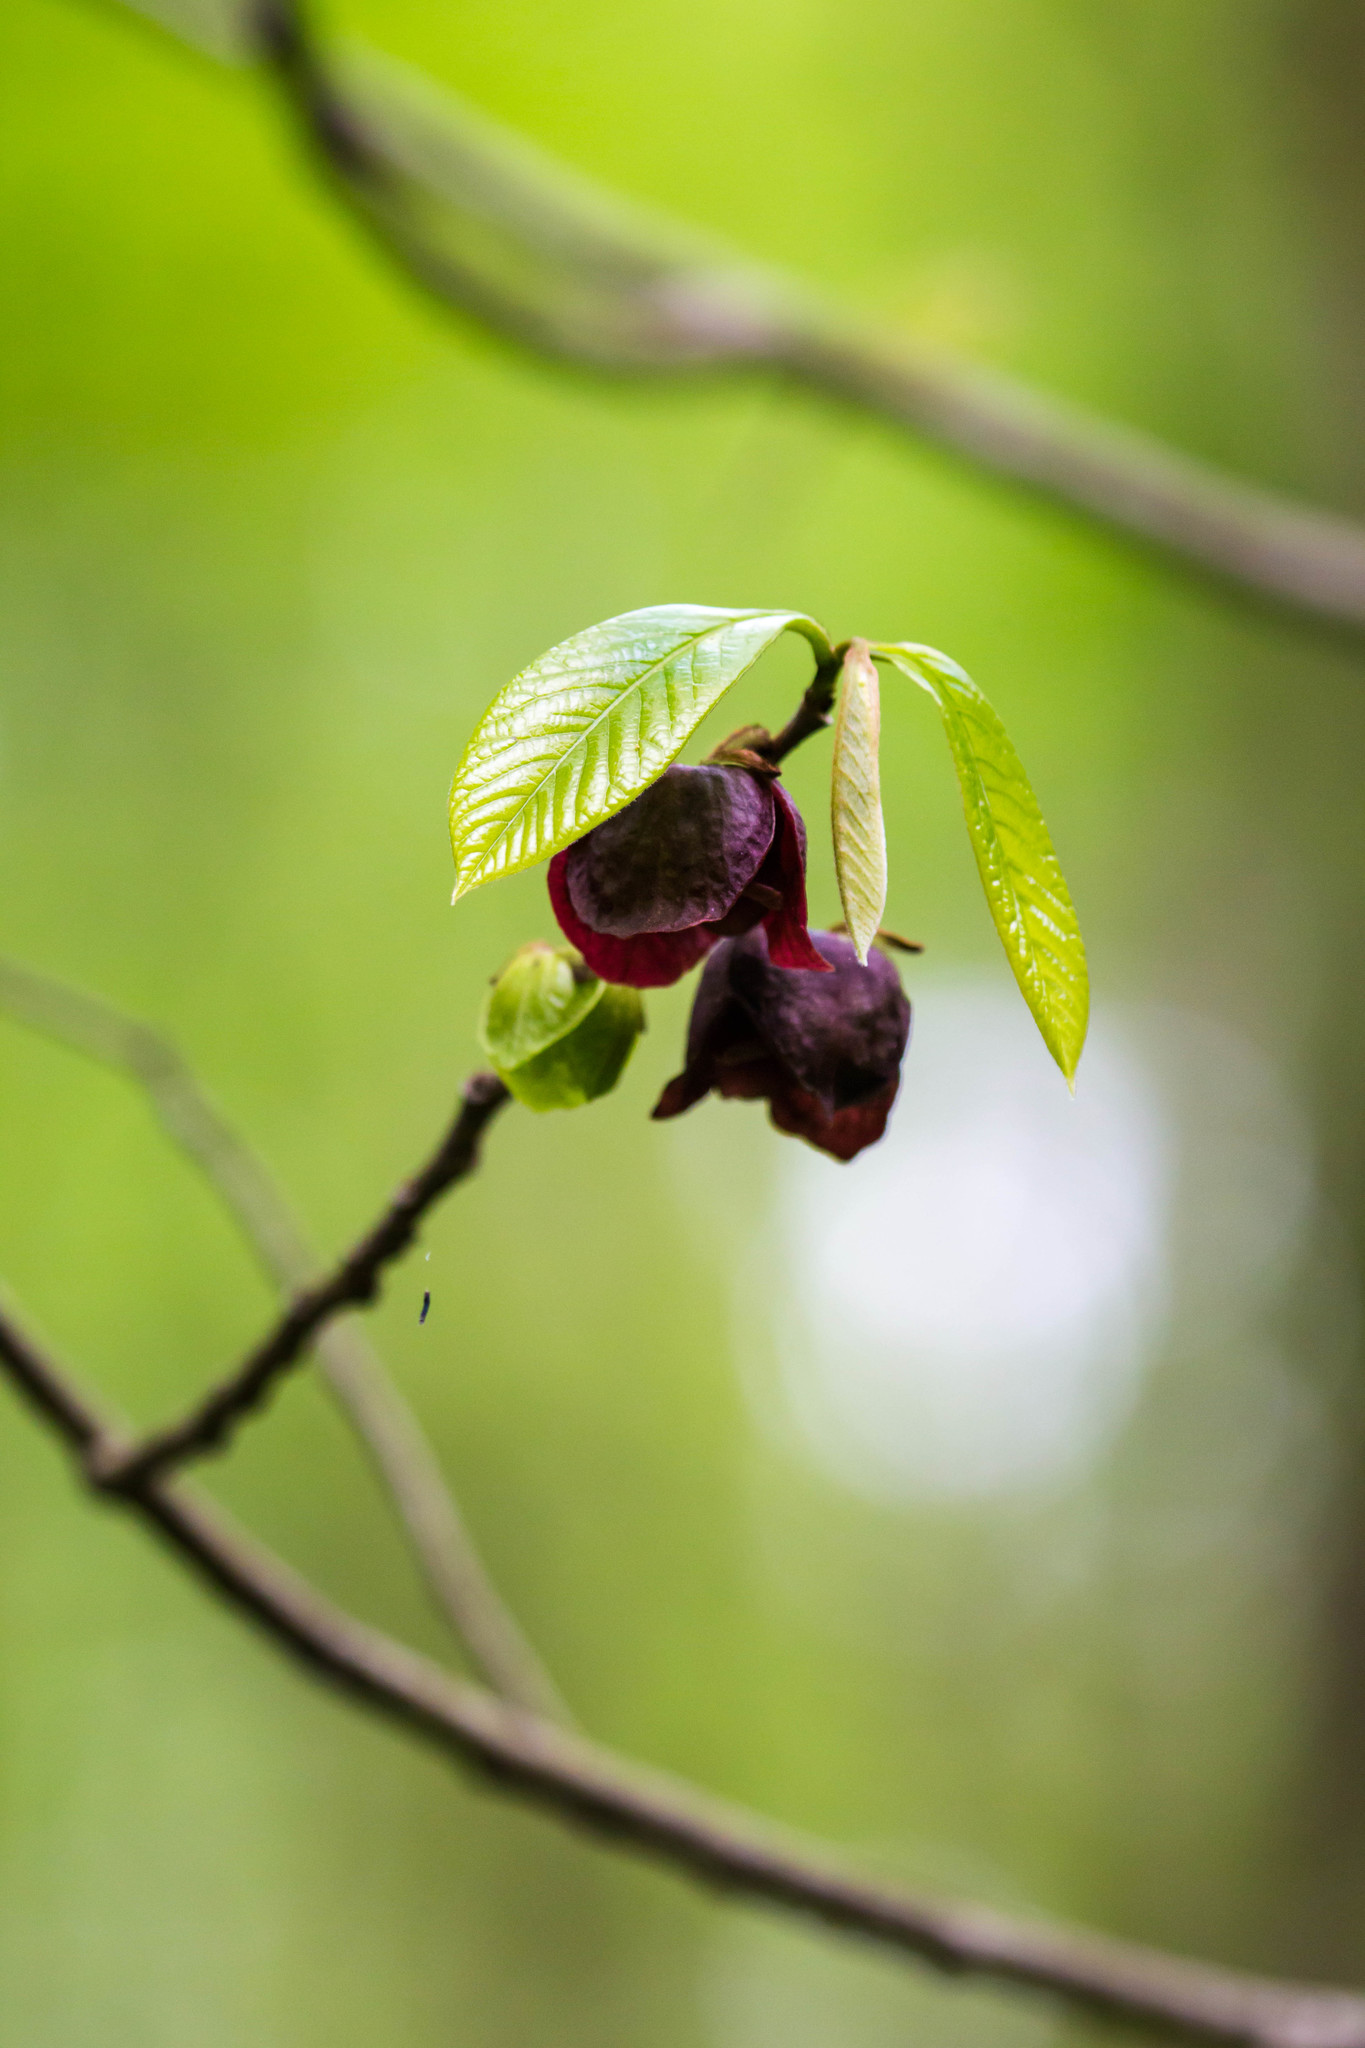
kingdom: Plantae
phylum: Tracheophyta
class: Magnoliopsida
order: Magnoliales
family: Annonaceae
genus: Asimina
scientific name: Asimina triloba
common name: Dog-banana
